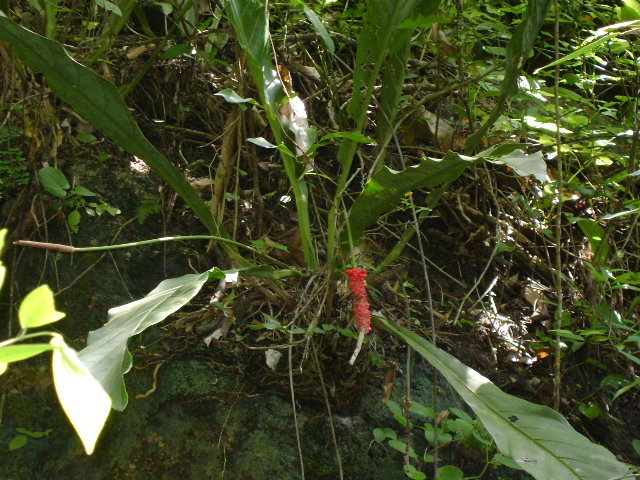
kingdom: Plantae
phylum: Tracheophyta
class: Liliopsida
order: Alismatales
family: Araceae
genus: Anthurium
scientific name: Anthurium schlechtendalii
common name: Laceleaf
